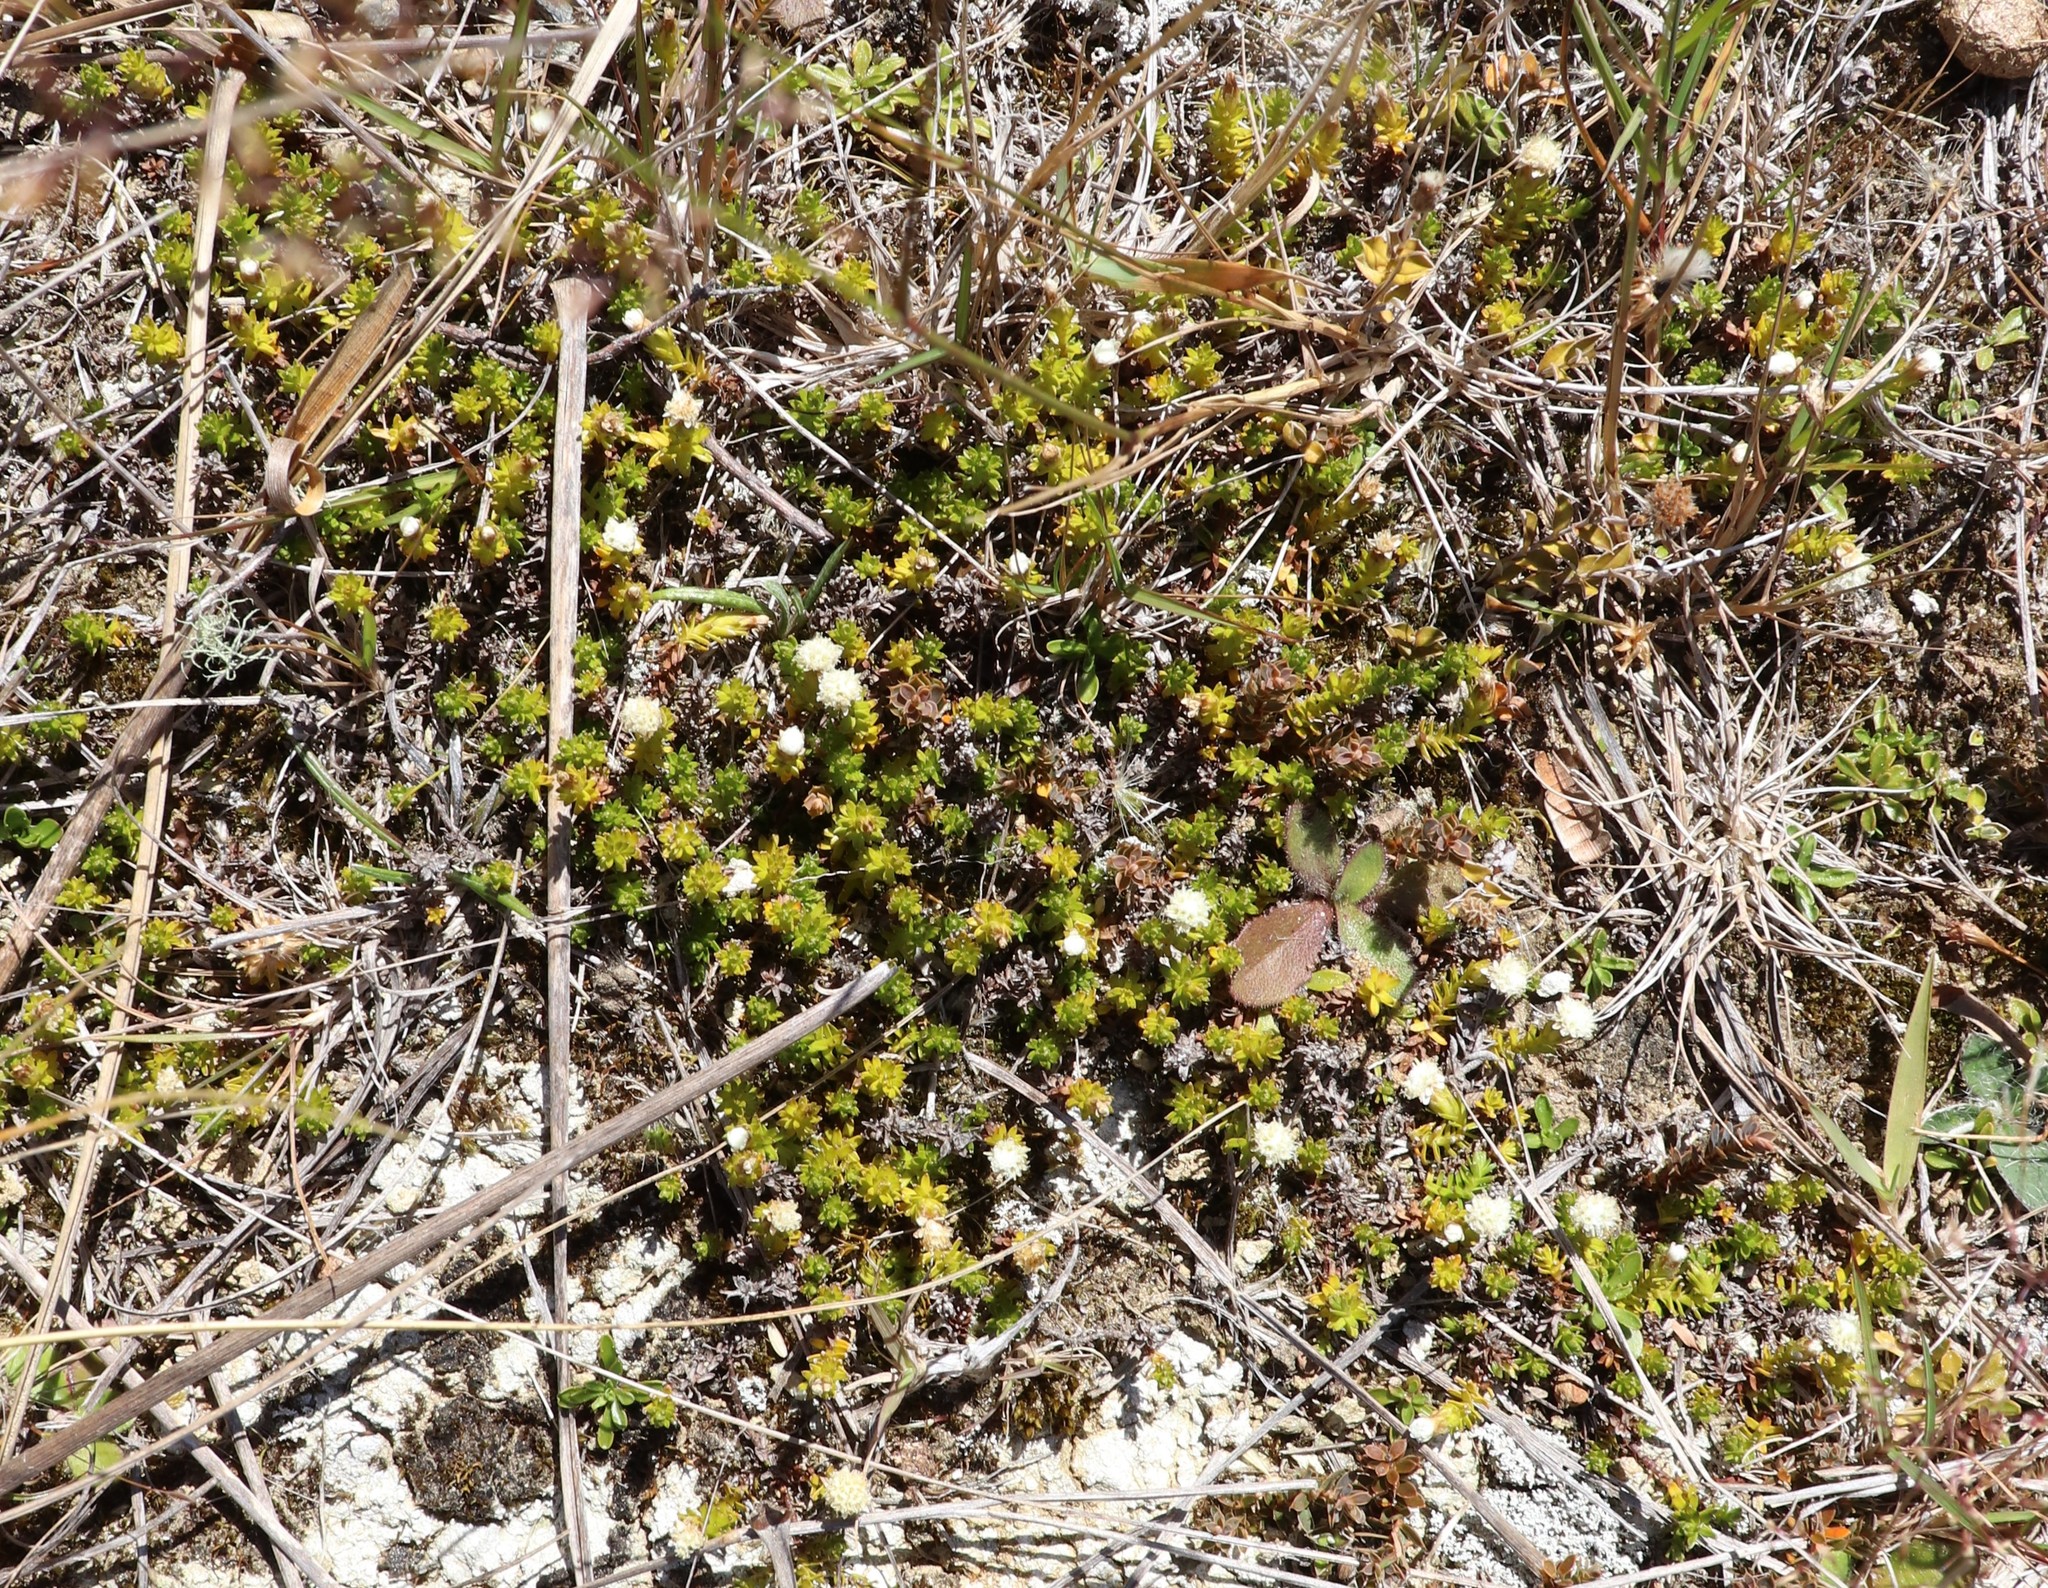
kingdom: Plantae
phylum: Tracheophyta
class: Magnoliopsida
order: Asterales
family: Asteraceae
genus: Raoulia
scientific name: Raoulia glabra
